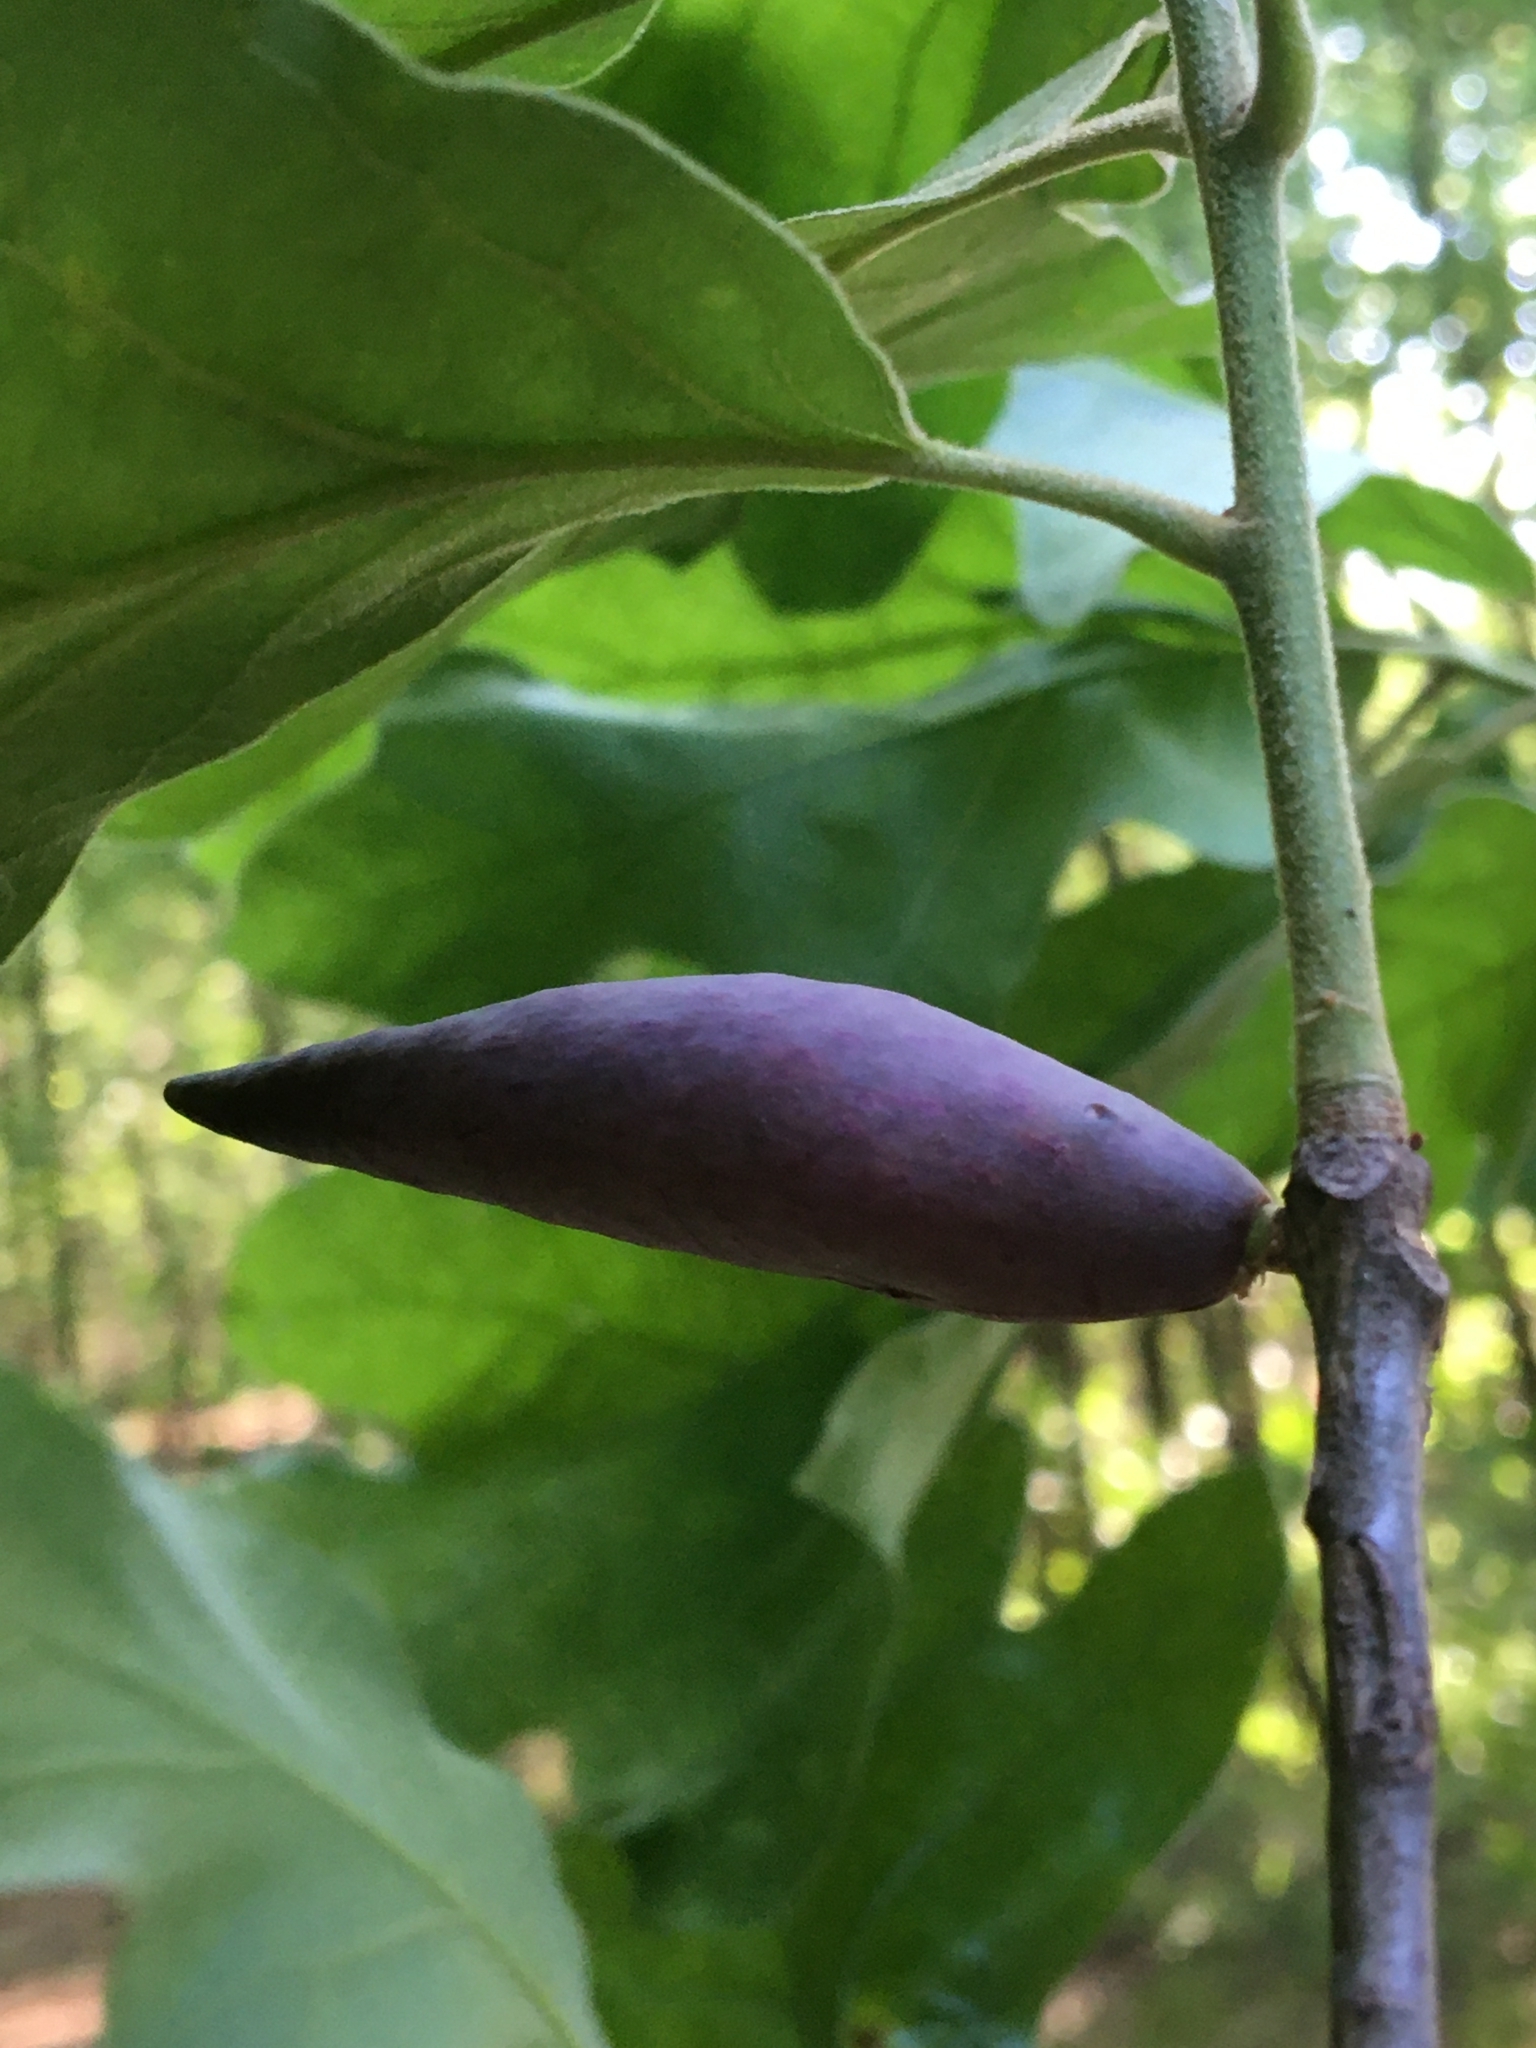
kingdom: Animalia
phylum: Arthropoda
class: Insecta
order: Hymenoptera
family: Cynipidae
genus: Amphibolips
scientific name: Amphibolips
